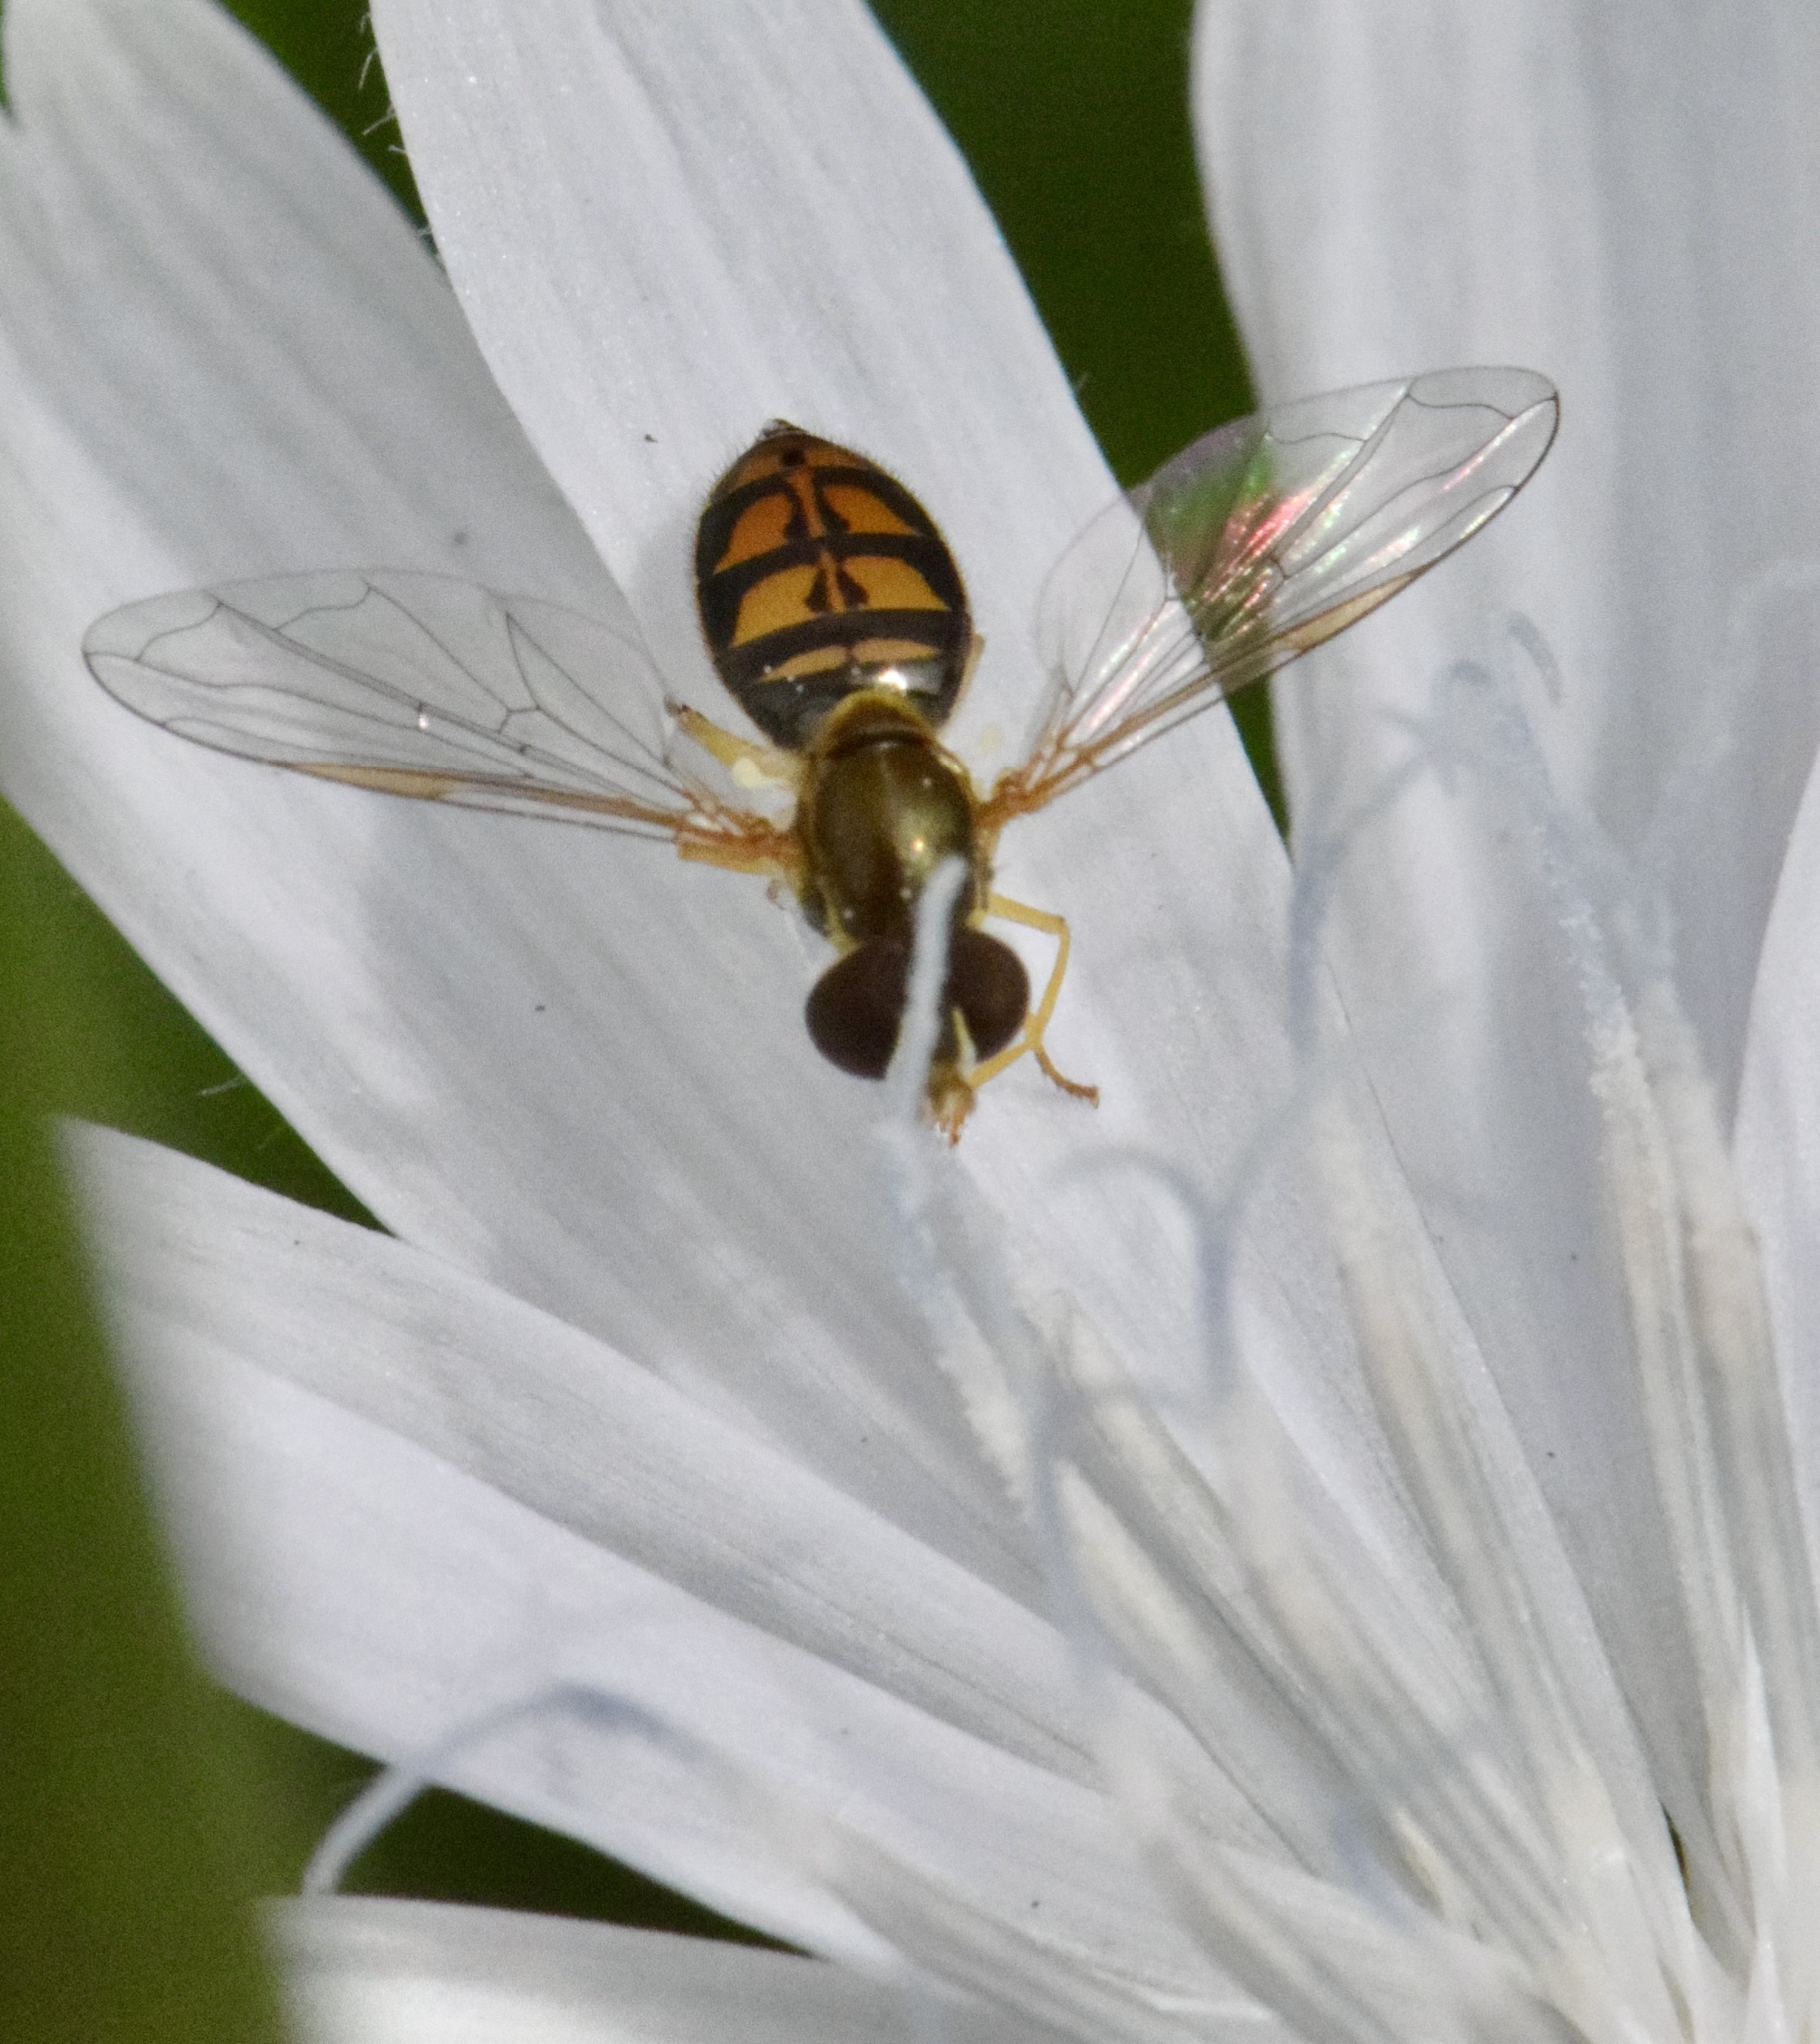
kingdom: Animalia
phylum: Arthropoda
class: Insecta
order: Diptera
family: Syrphidae
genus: Toxomerus
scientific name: Toxomerus marginatus
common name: Syrphid fly
